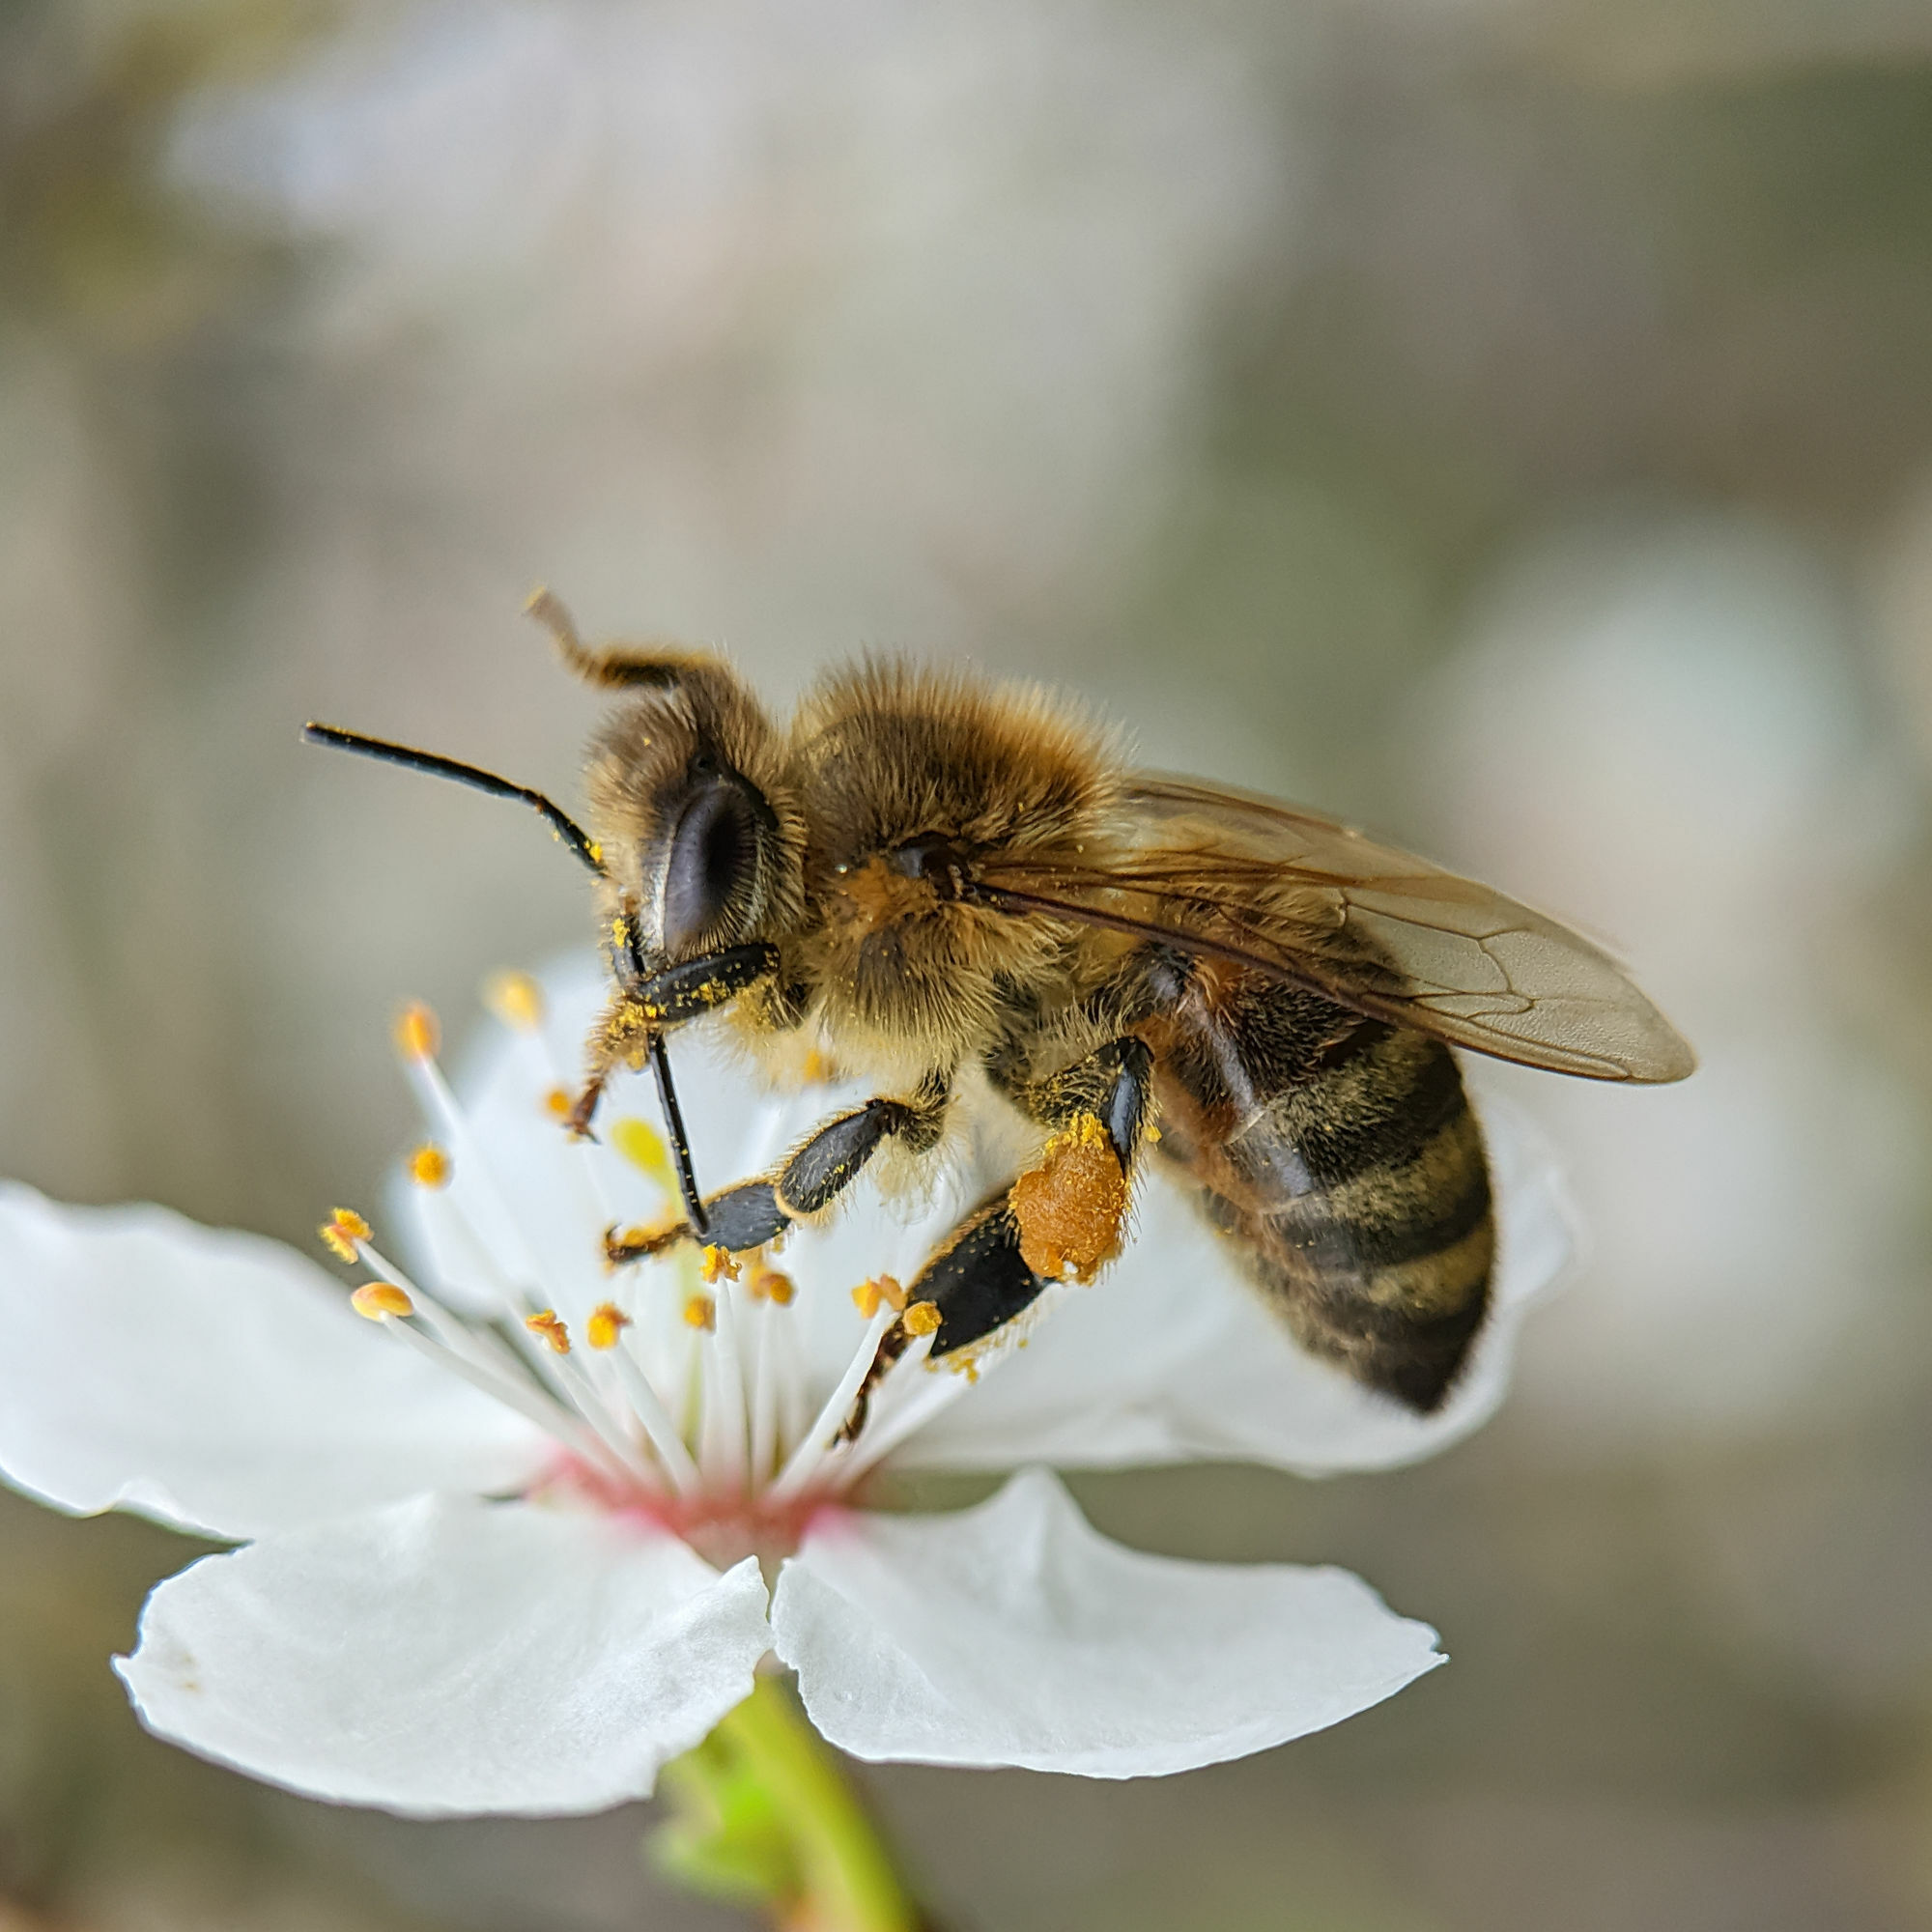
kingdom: Animalia
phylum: Arthropoda
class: Insecta
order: Hymenoptera
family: Apidae
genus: Apis
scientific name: Apis mellifera
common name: Honey bee
